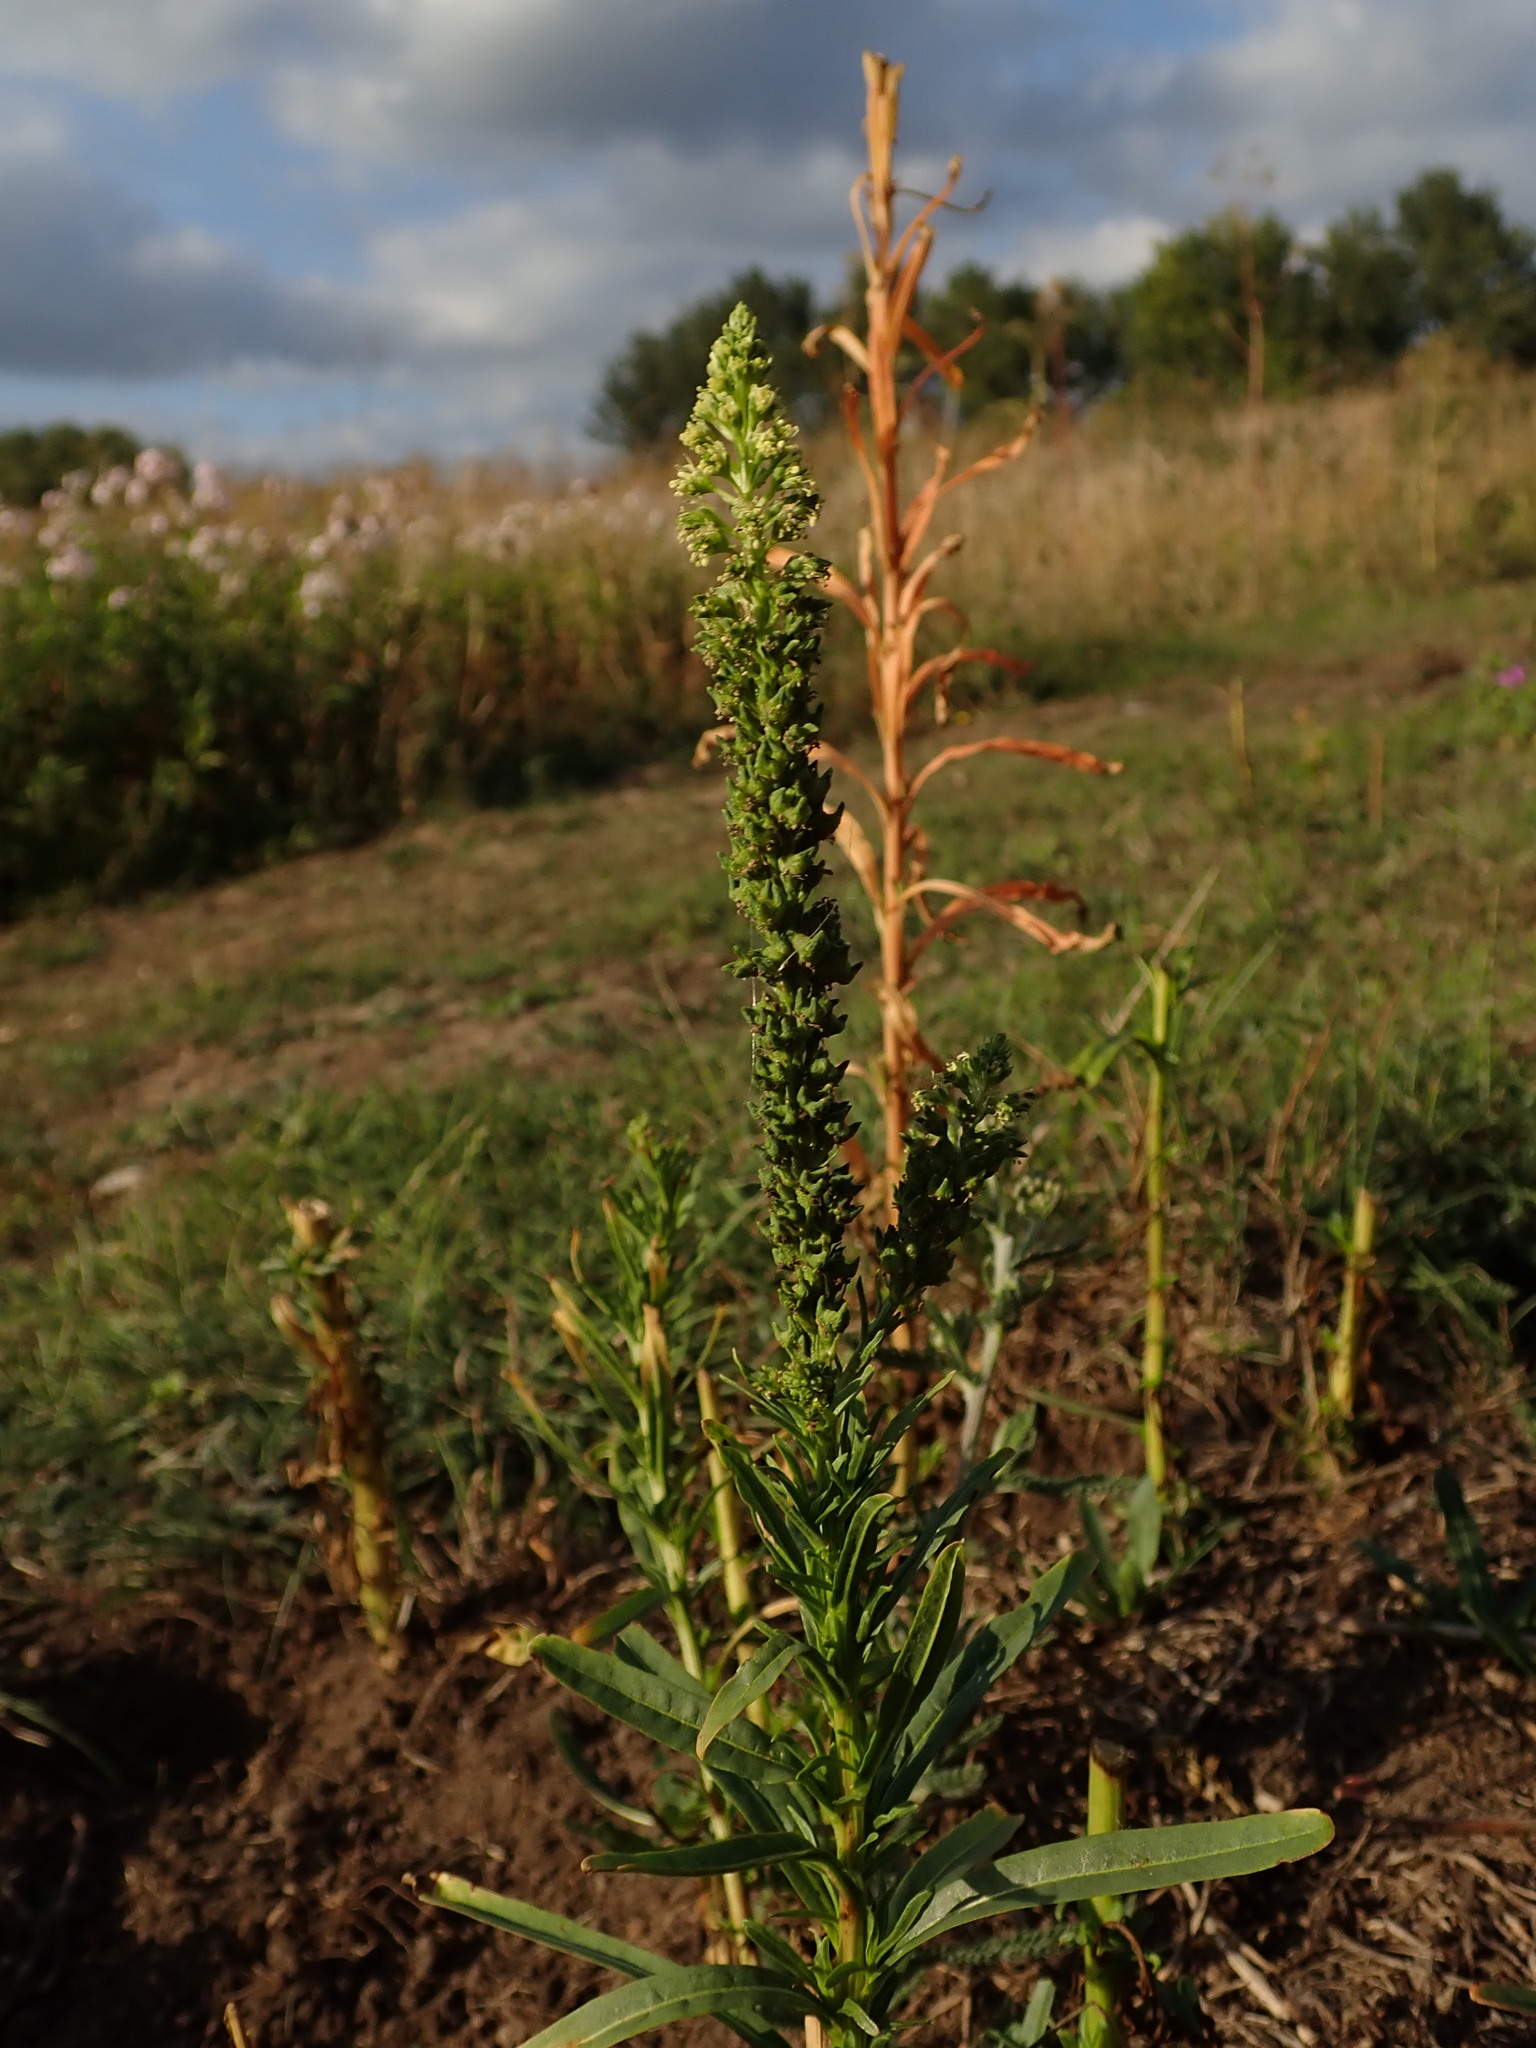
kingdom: Plantae
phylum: Tracheophyta
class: Magnoliopsida
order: Brassicales
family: Resedaceae
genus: Reseda
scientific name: Reseda luteola
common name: Weld
